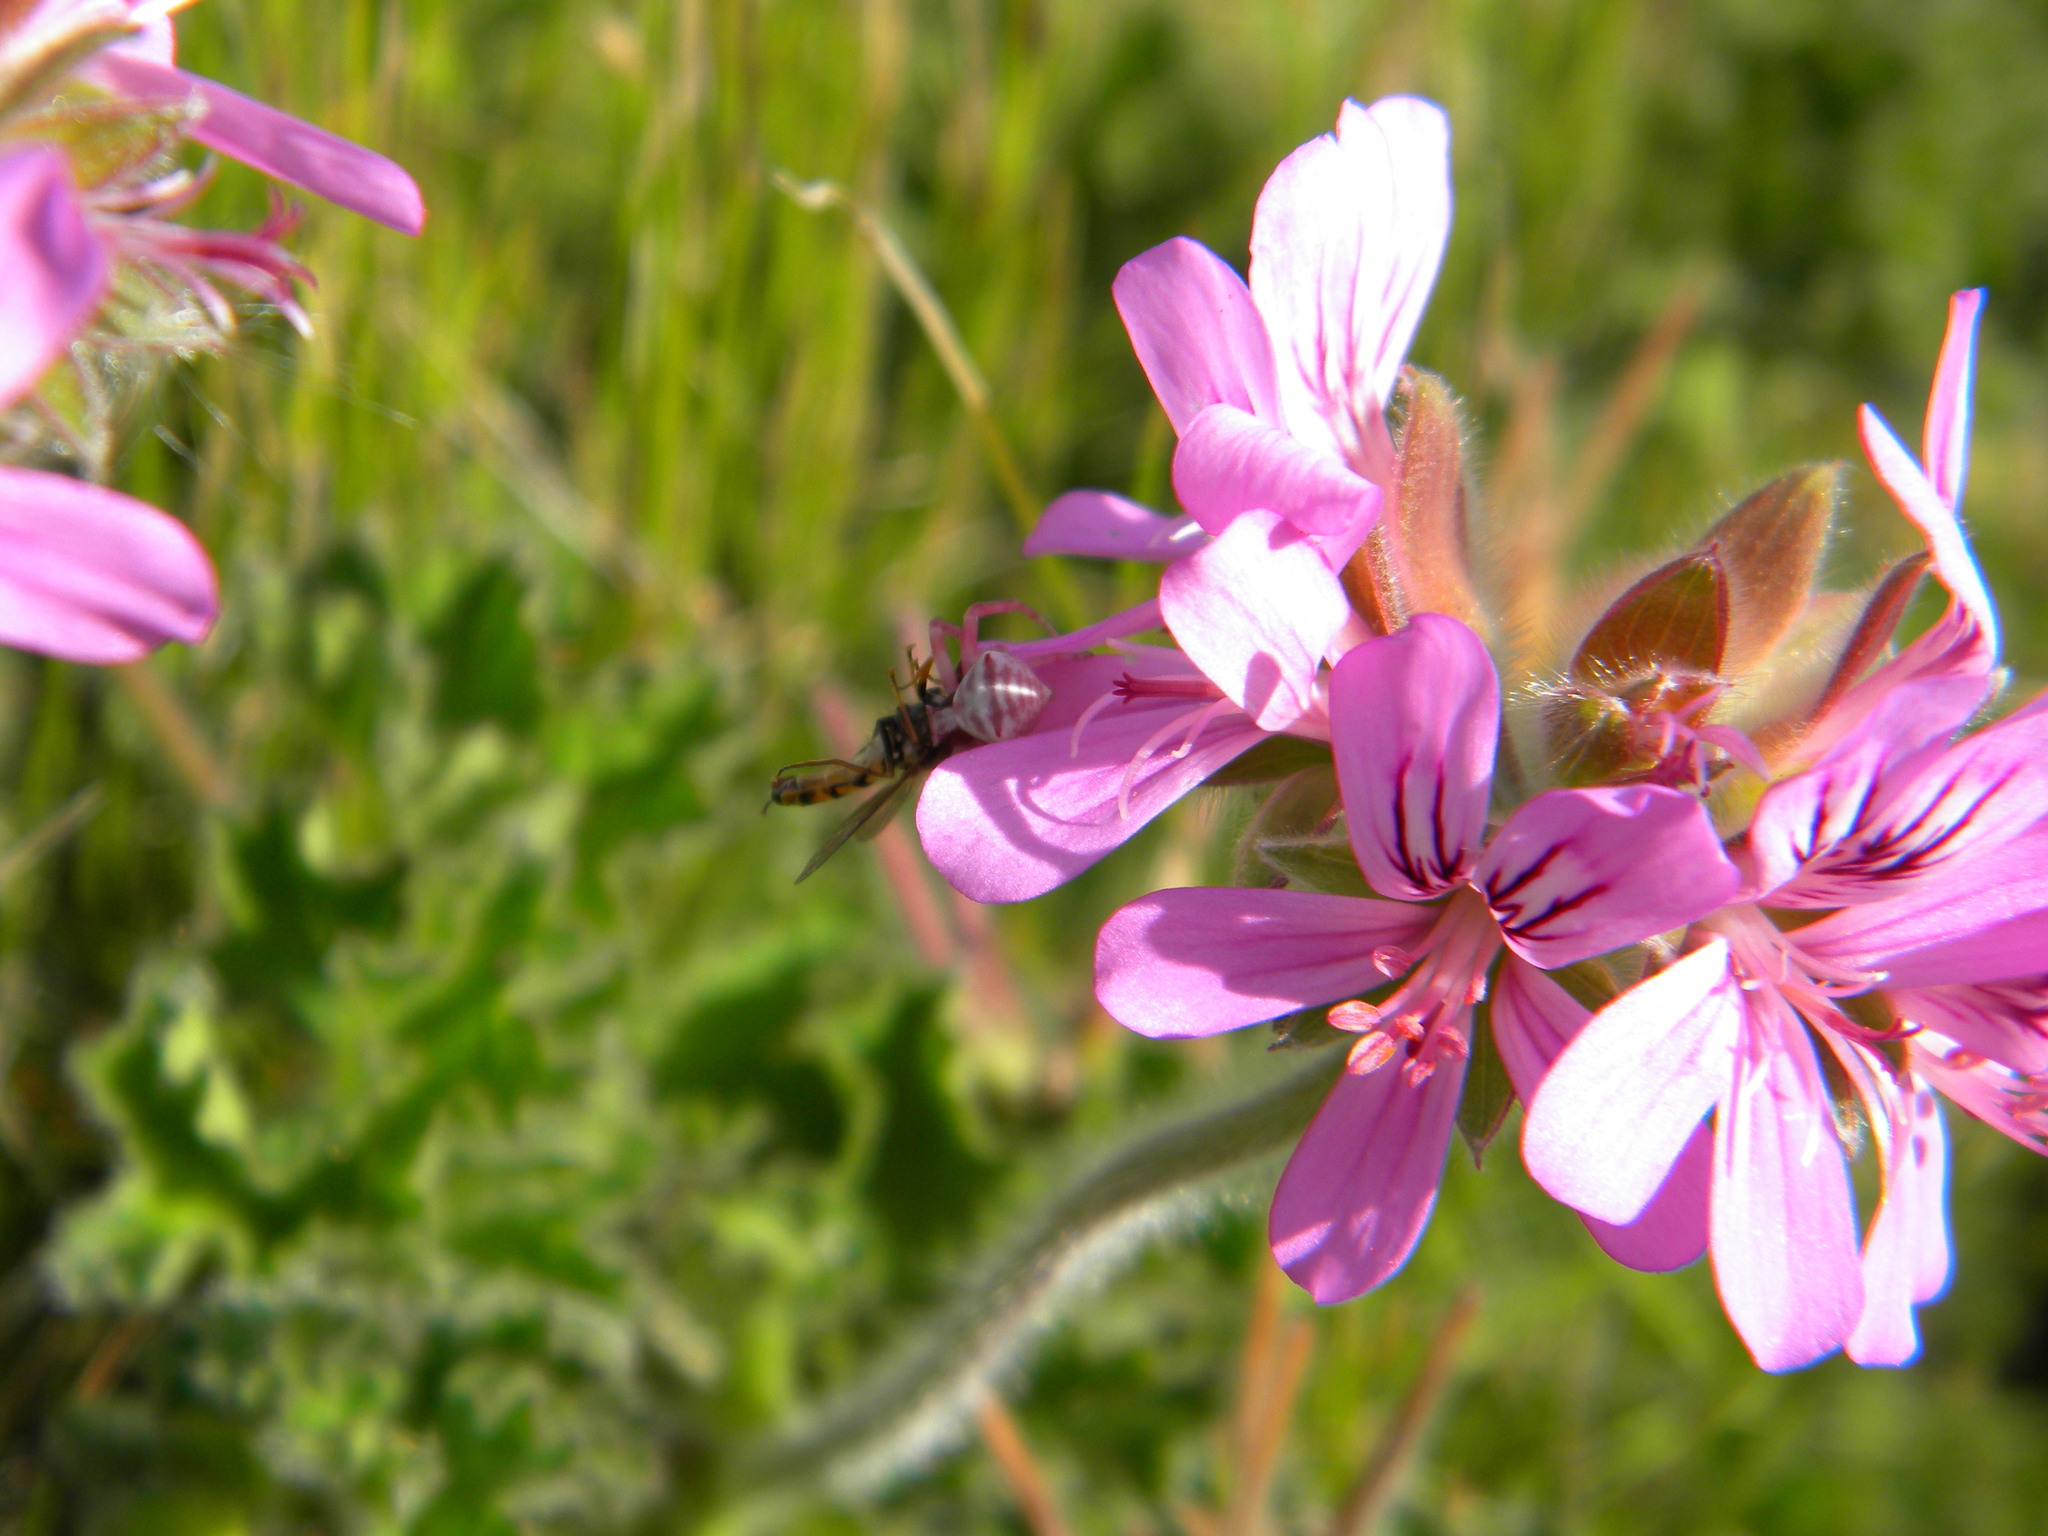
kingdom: Plantae
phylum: Tracheophyta
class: Magnoliopsida
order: Geraniales
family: Geraniaceae
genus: Pelargonium
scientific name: Pelargonium capitatum
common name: Rose scented geranium
